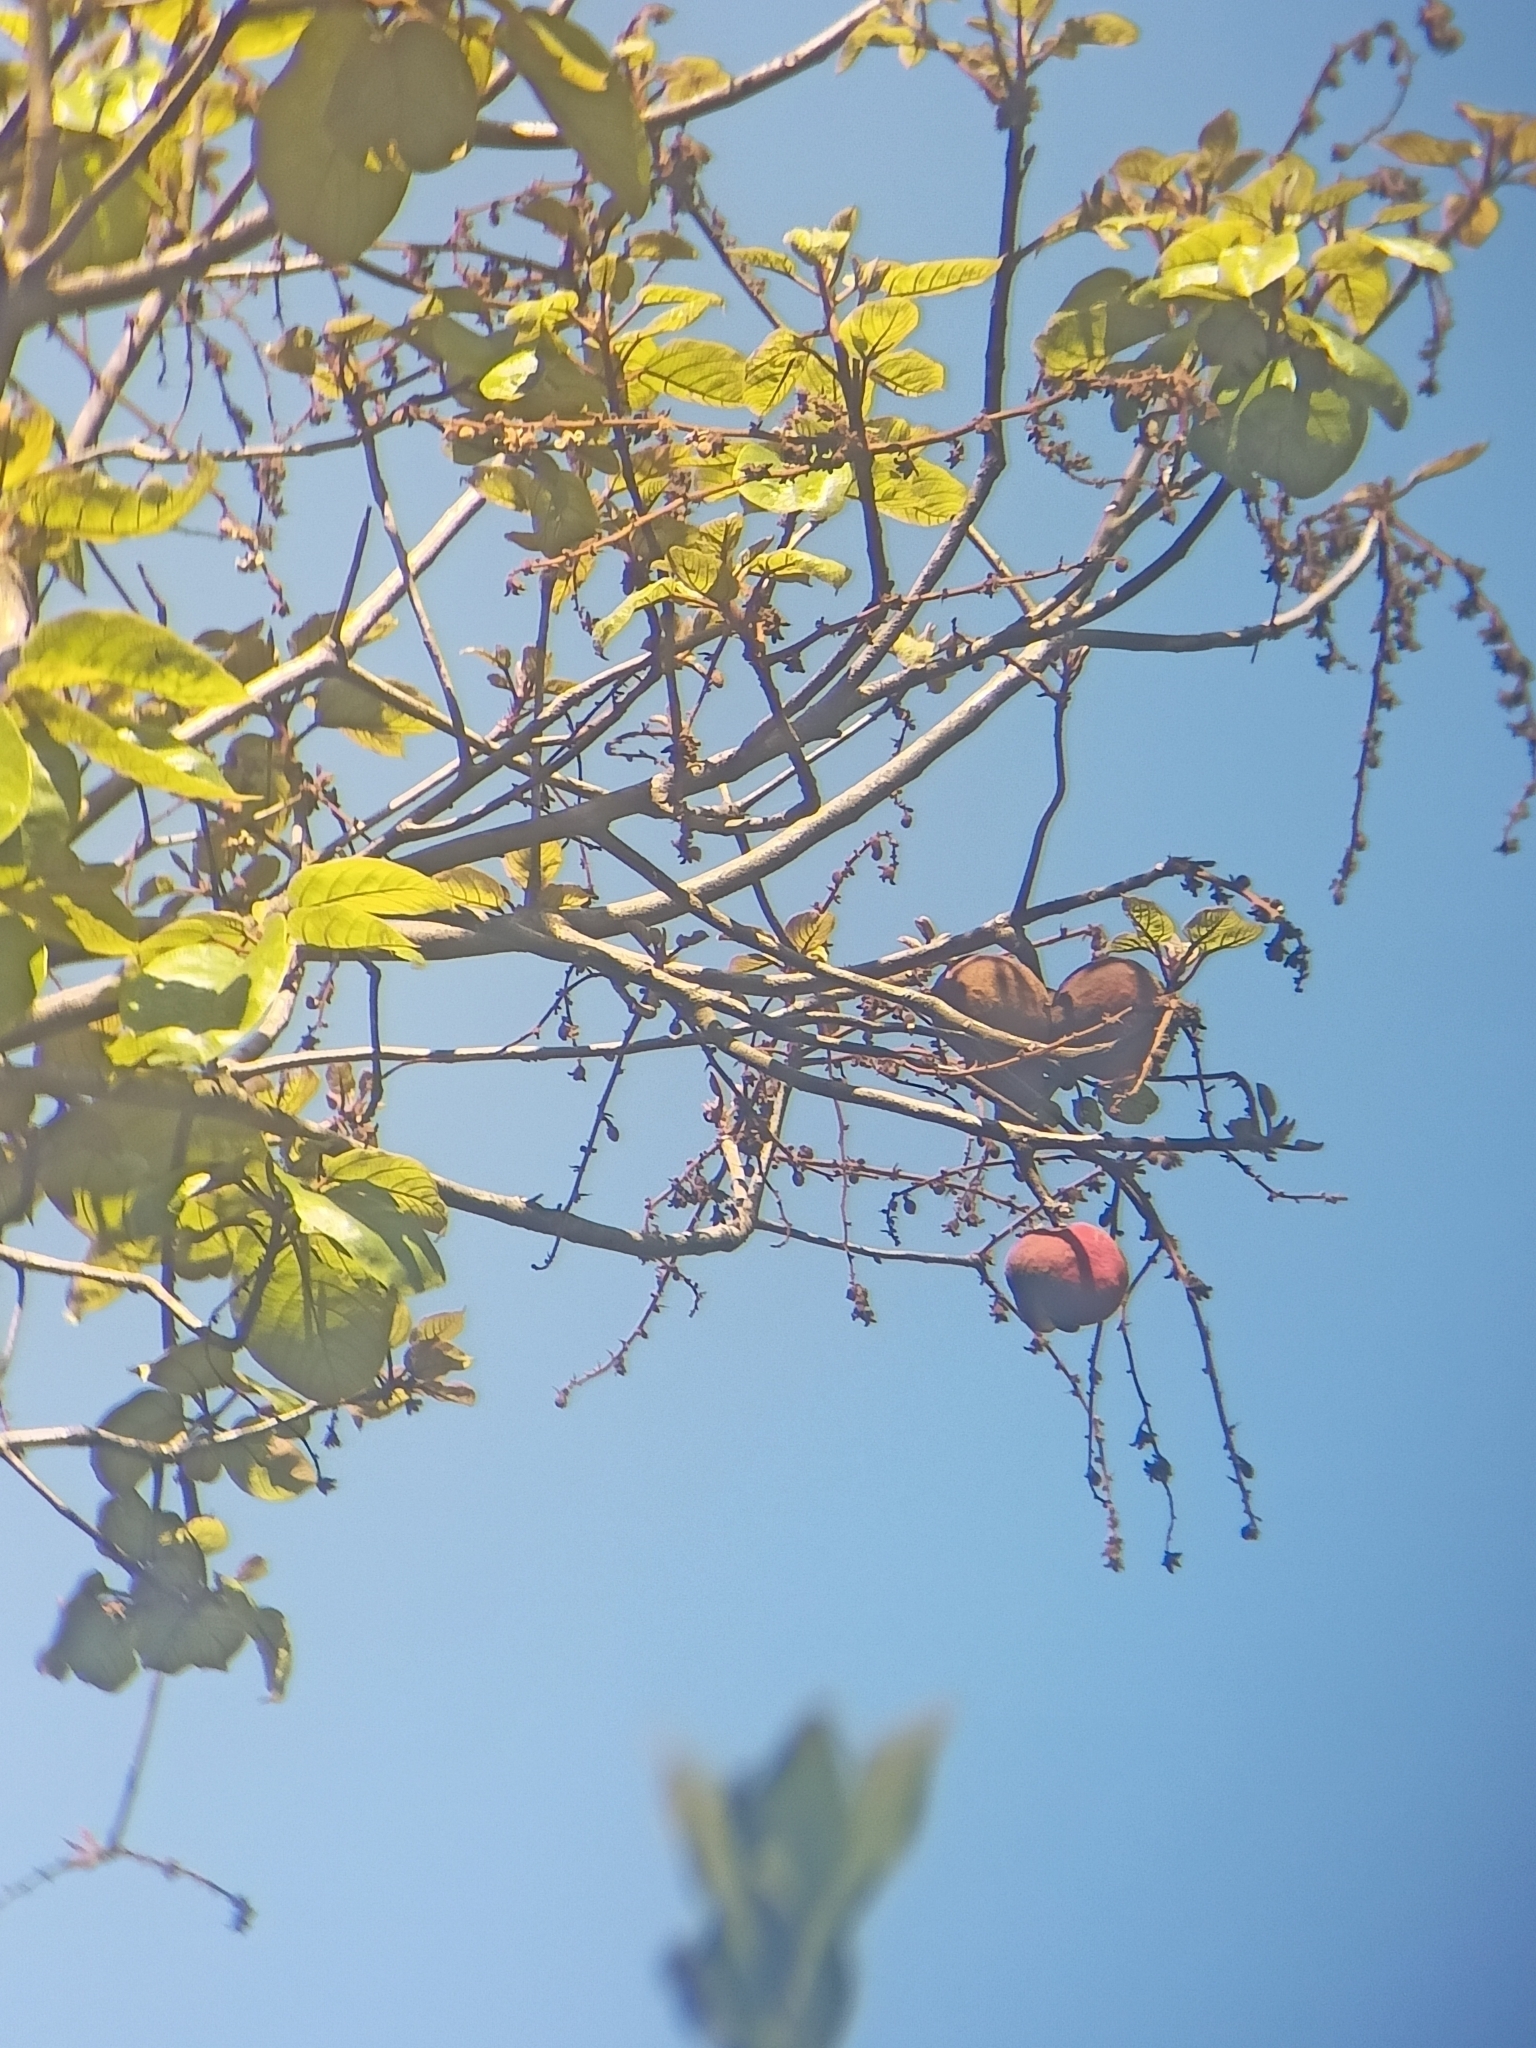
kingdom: Plantae
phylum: Tracheophyta
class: Magnoliopsida
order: Malvales
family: Malvaceae
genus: Sterculia
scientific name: Sterculia guttata
